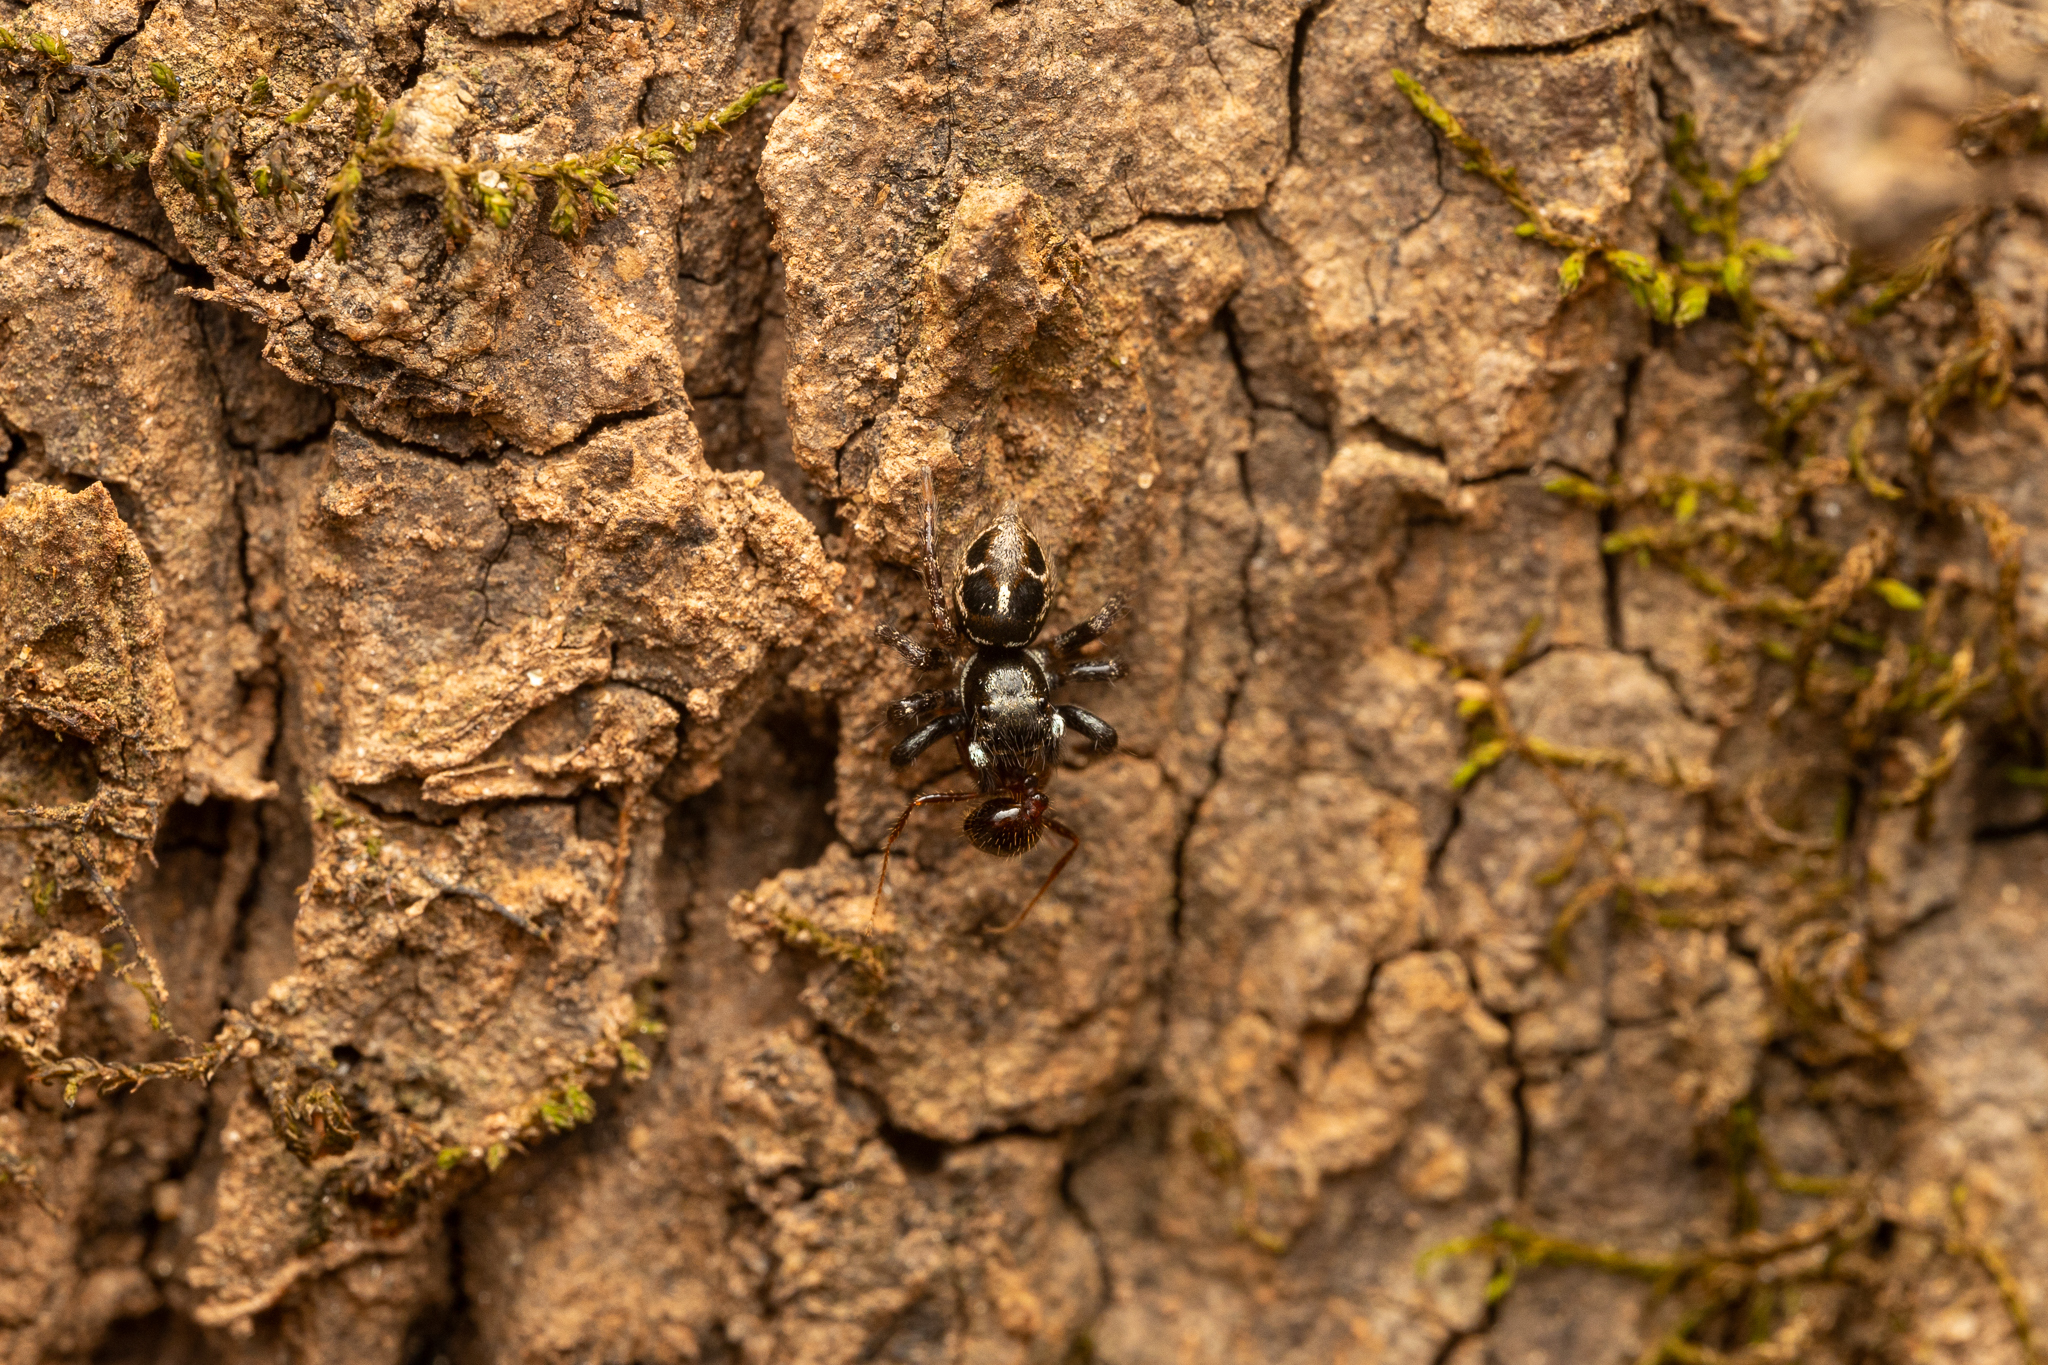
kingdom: Animalia
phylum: Arthropoda
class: Arachnida
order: Araneae
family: Salticidae
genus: Anasaitis
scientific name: Anasaitis canosa
